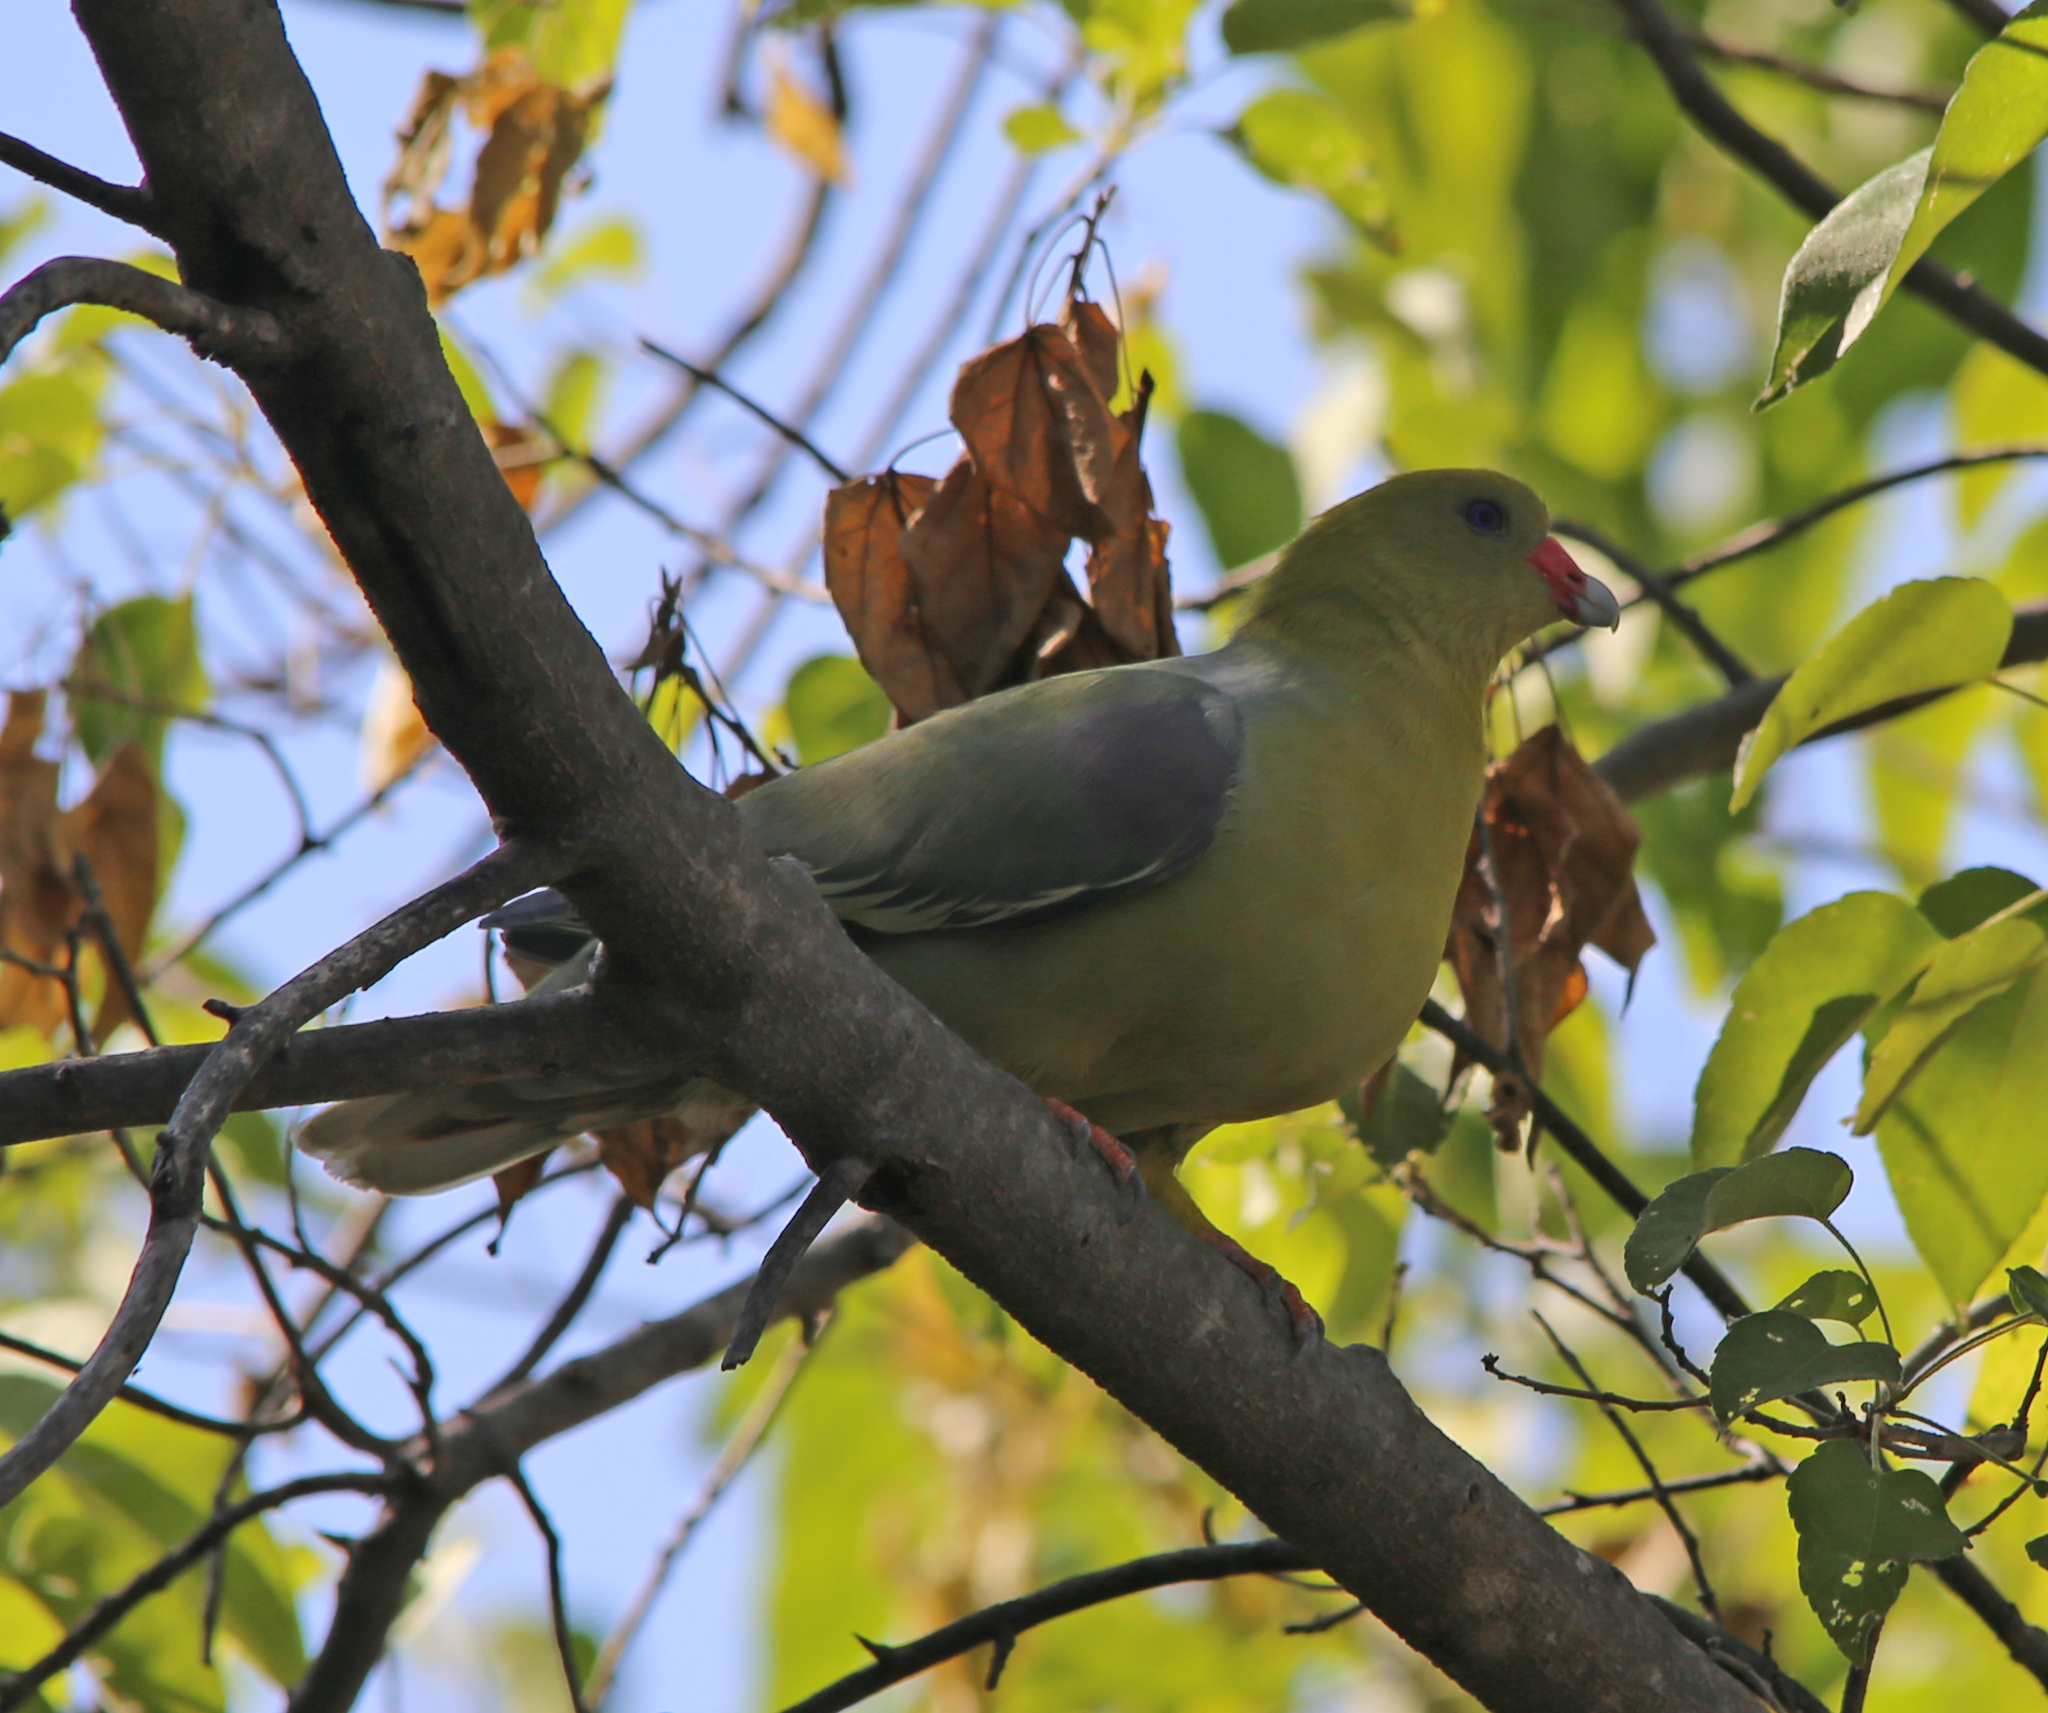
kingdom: Animalia
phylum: Chordata
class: Aves
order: Columbiformes
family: Columbidae
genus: Treron
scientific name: Treron calvus
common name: African green pigeon
